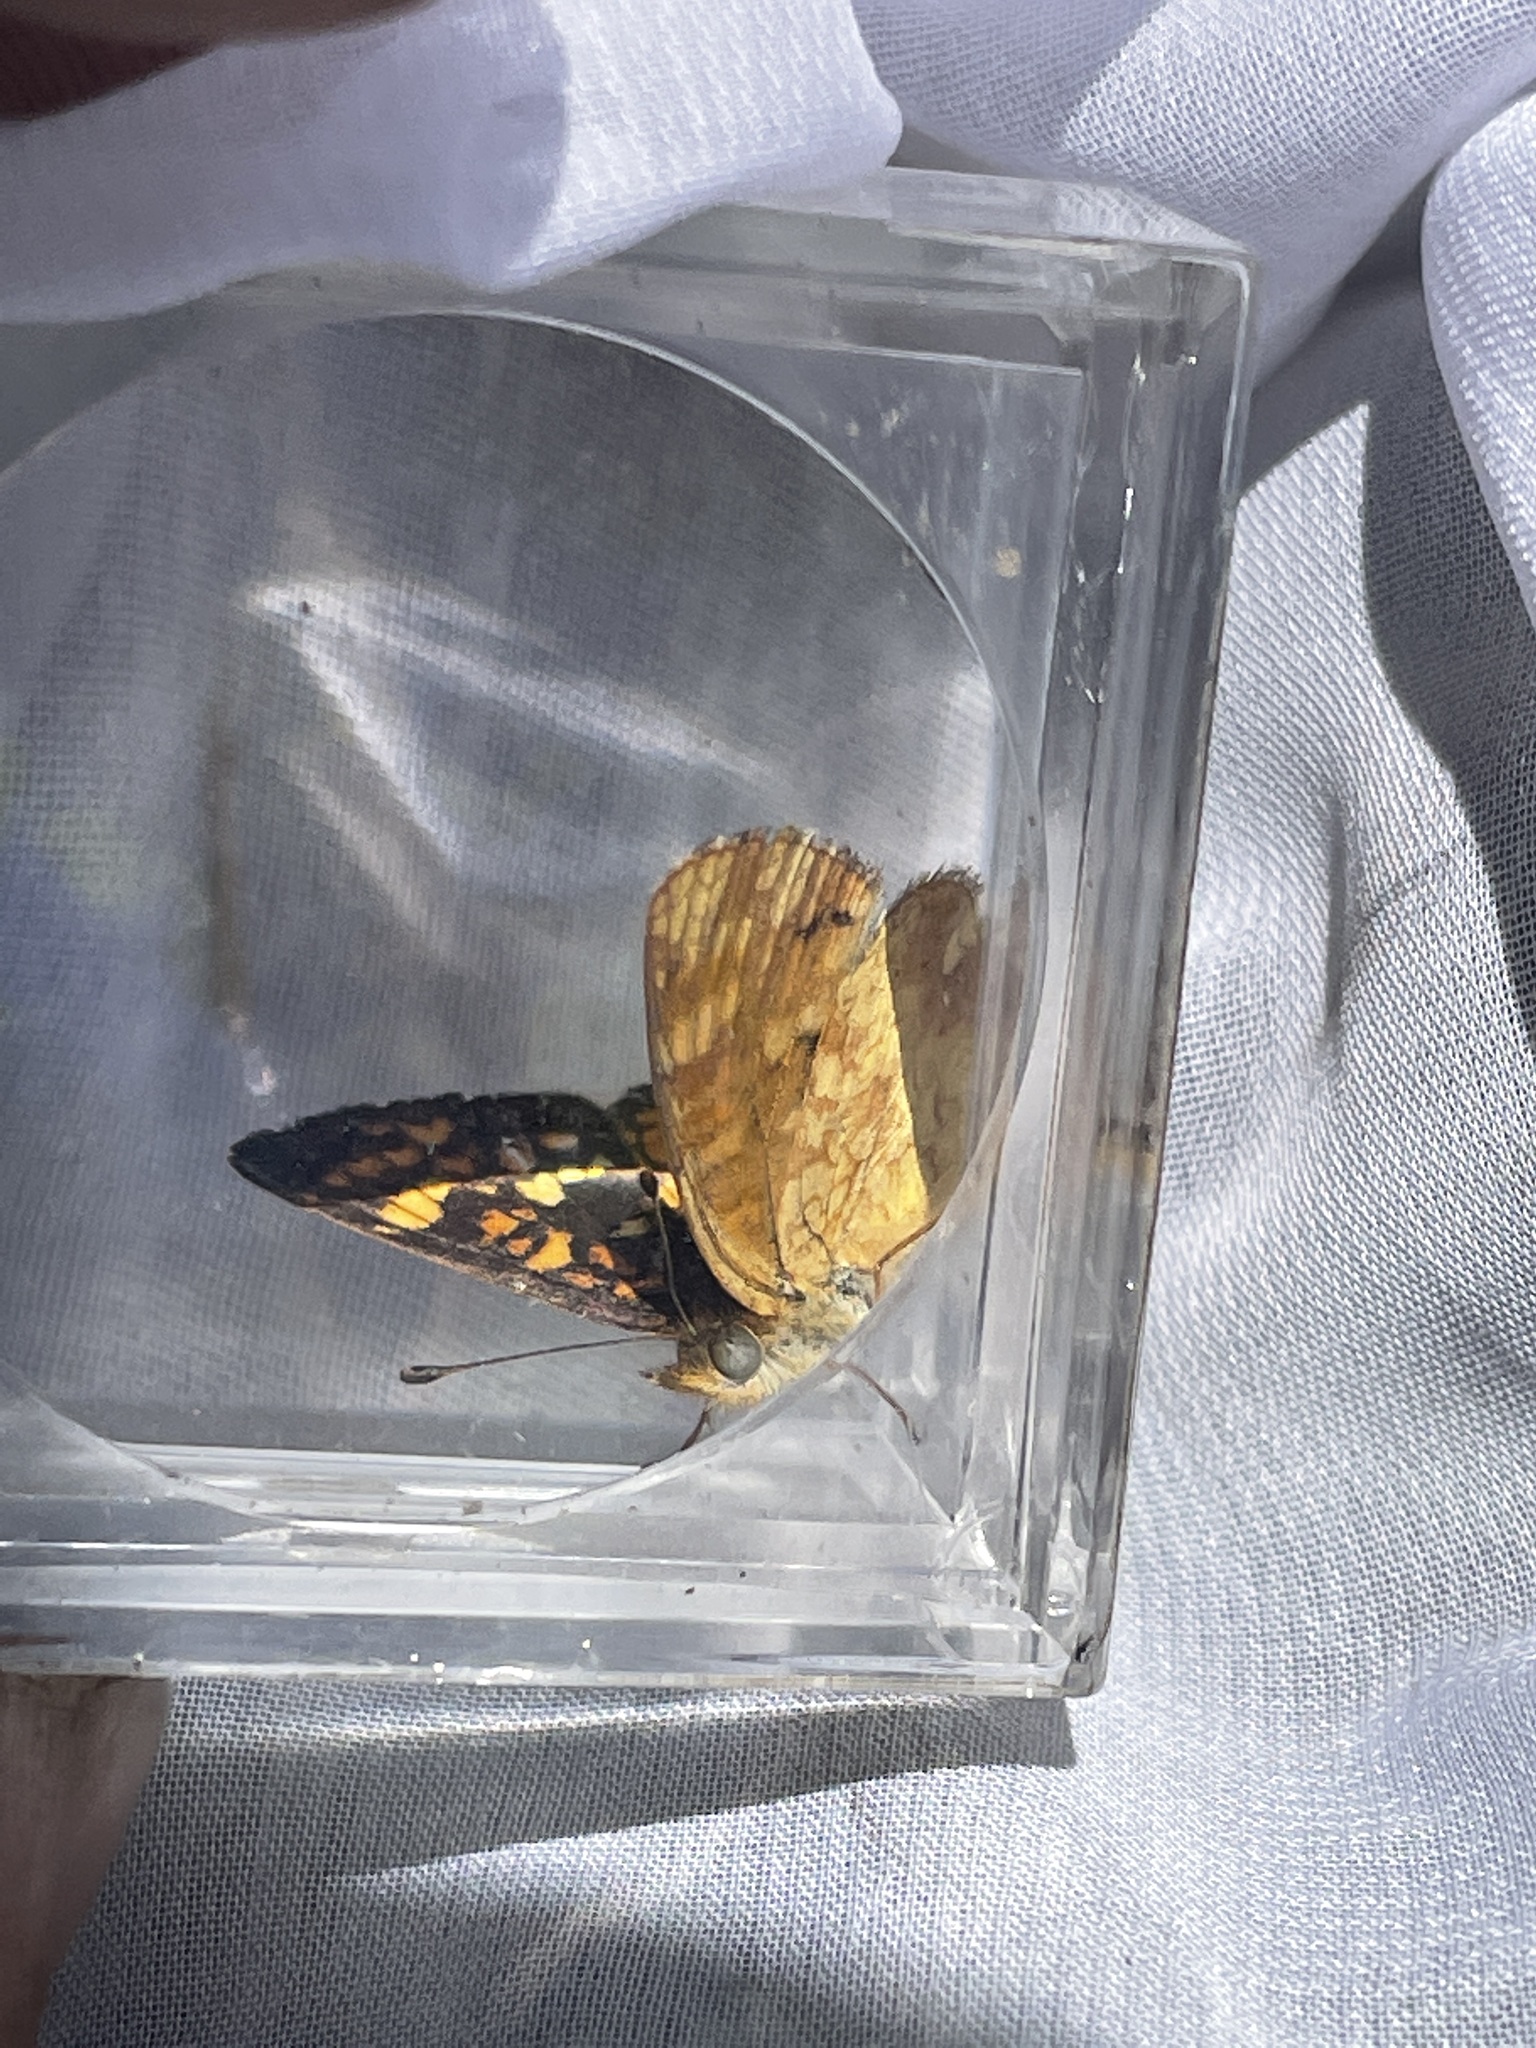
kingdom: Animalia
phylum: Arthropoda
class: Insecta
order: Lepidoptera
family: Nymphalidae
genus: Phyciodes
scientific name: Phyciodes tharos
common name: Pearl crescent
